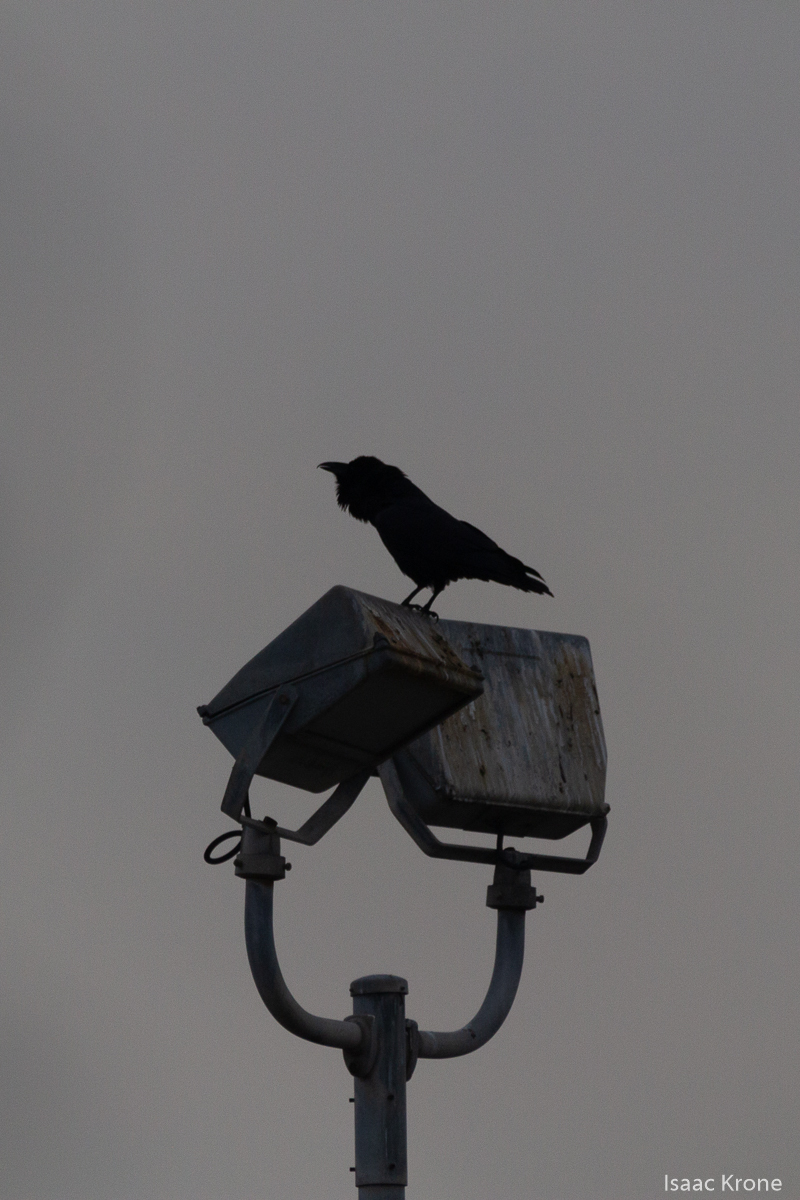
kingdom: Animalia
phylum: Chordata
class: Aves
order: Passeriformes
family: Corvidae
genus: Corvus
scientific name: Corvus brachyrhynchos
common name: American crow
